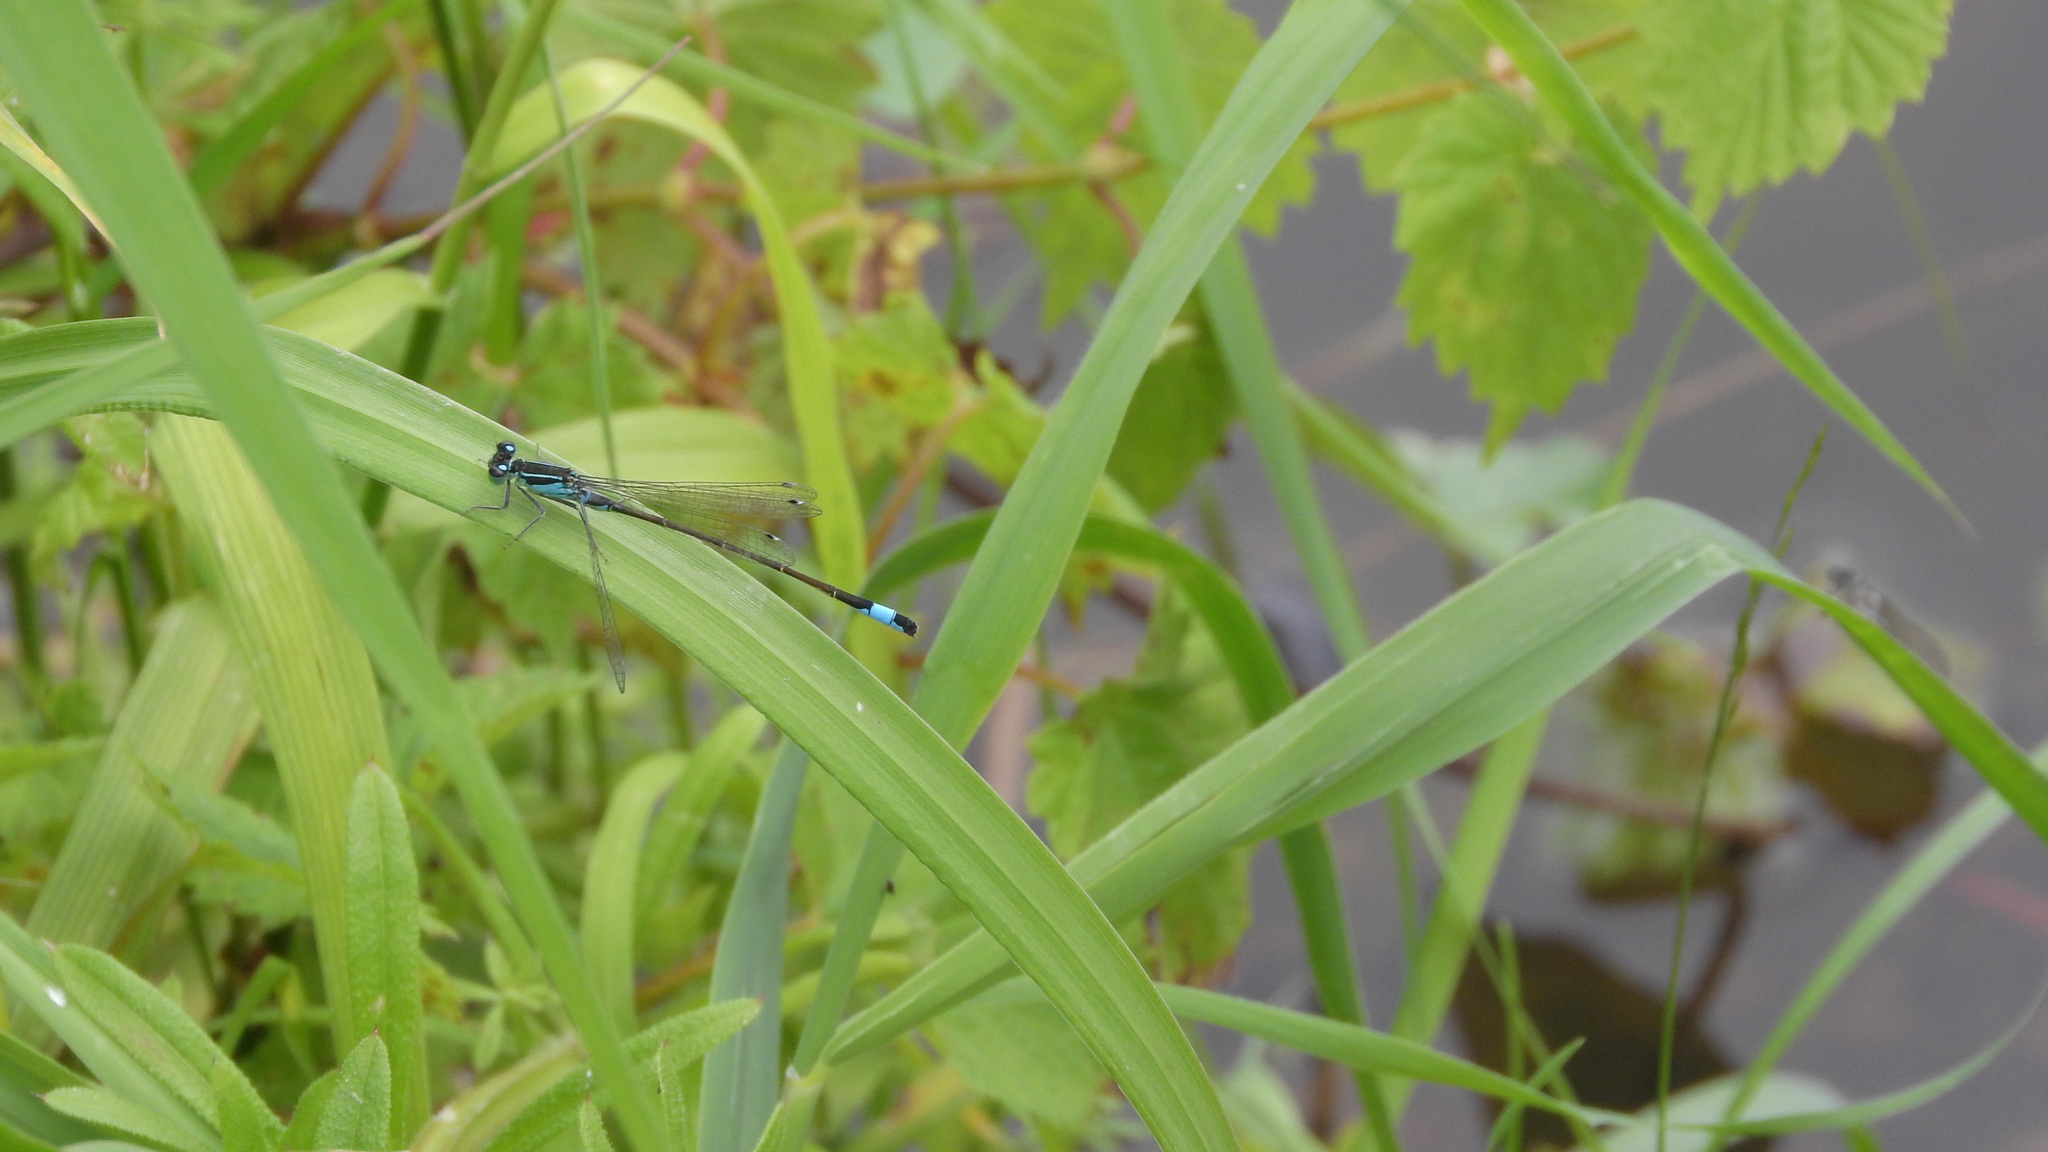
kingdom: Animalia
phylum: Arthropoda
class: Insecta
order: Odonata
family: Coenagrionidae
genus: Ischnura
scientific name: Ischnura elegans
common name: Blue-tailed damselfly
